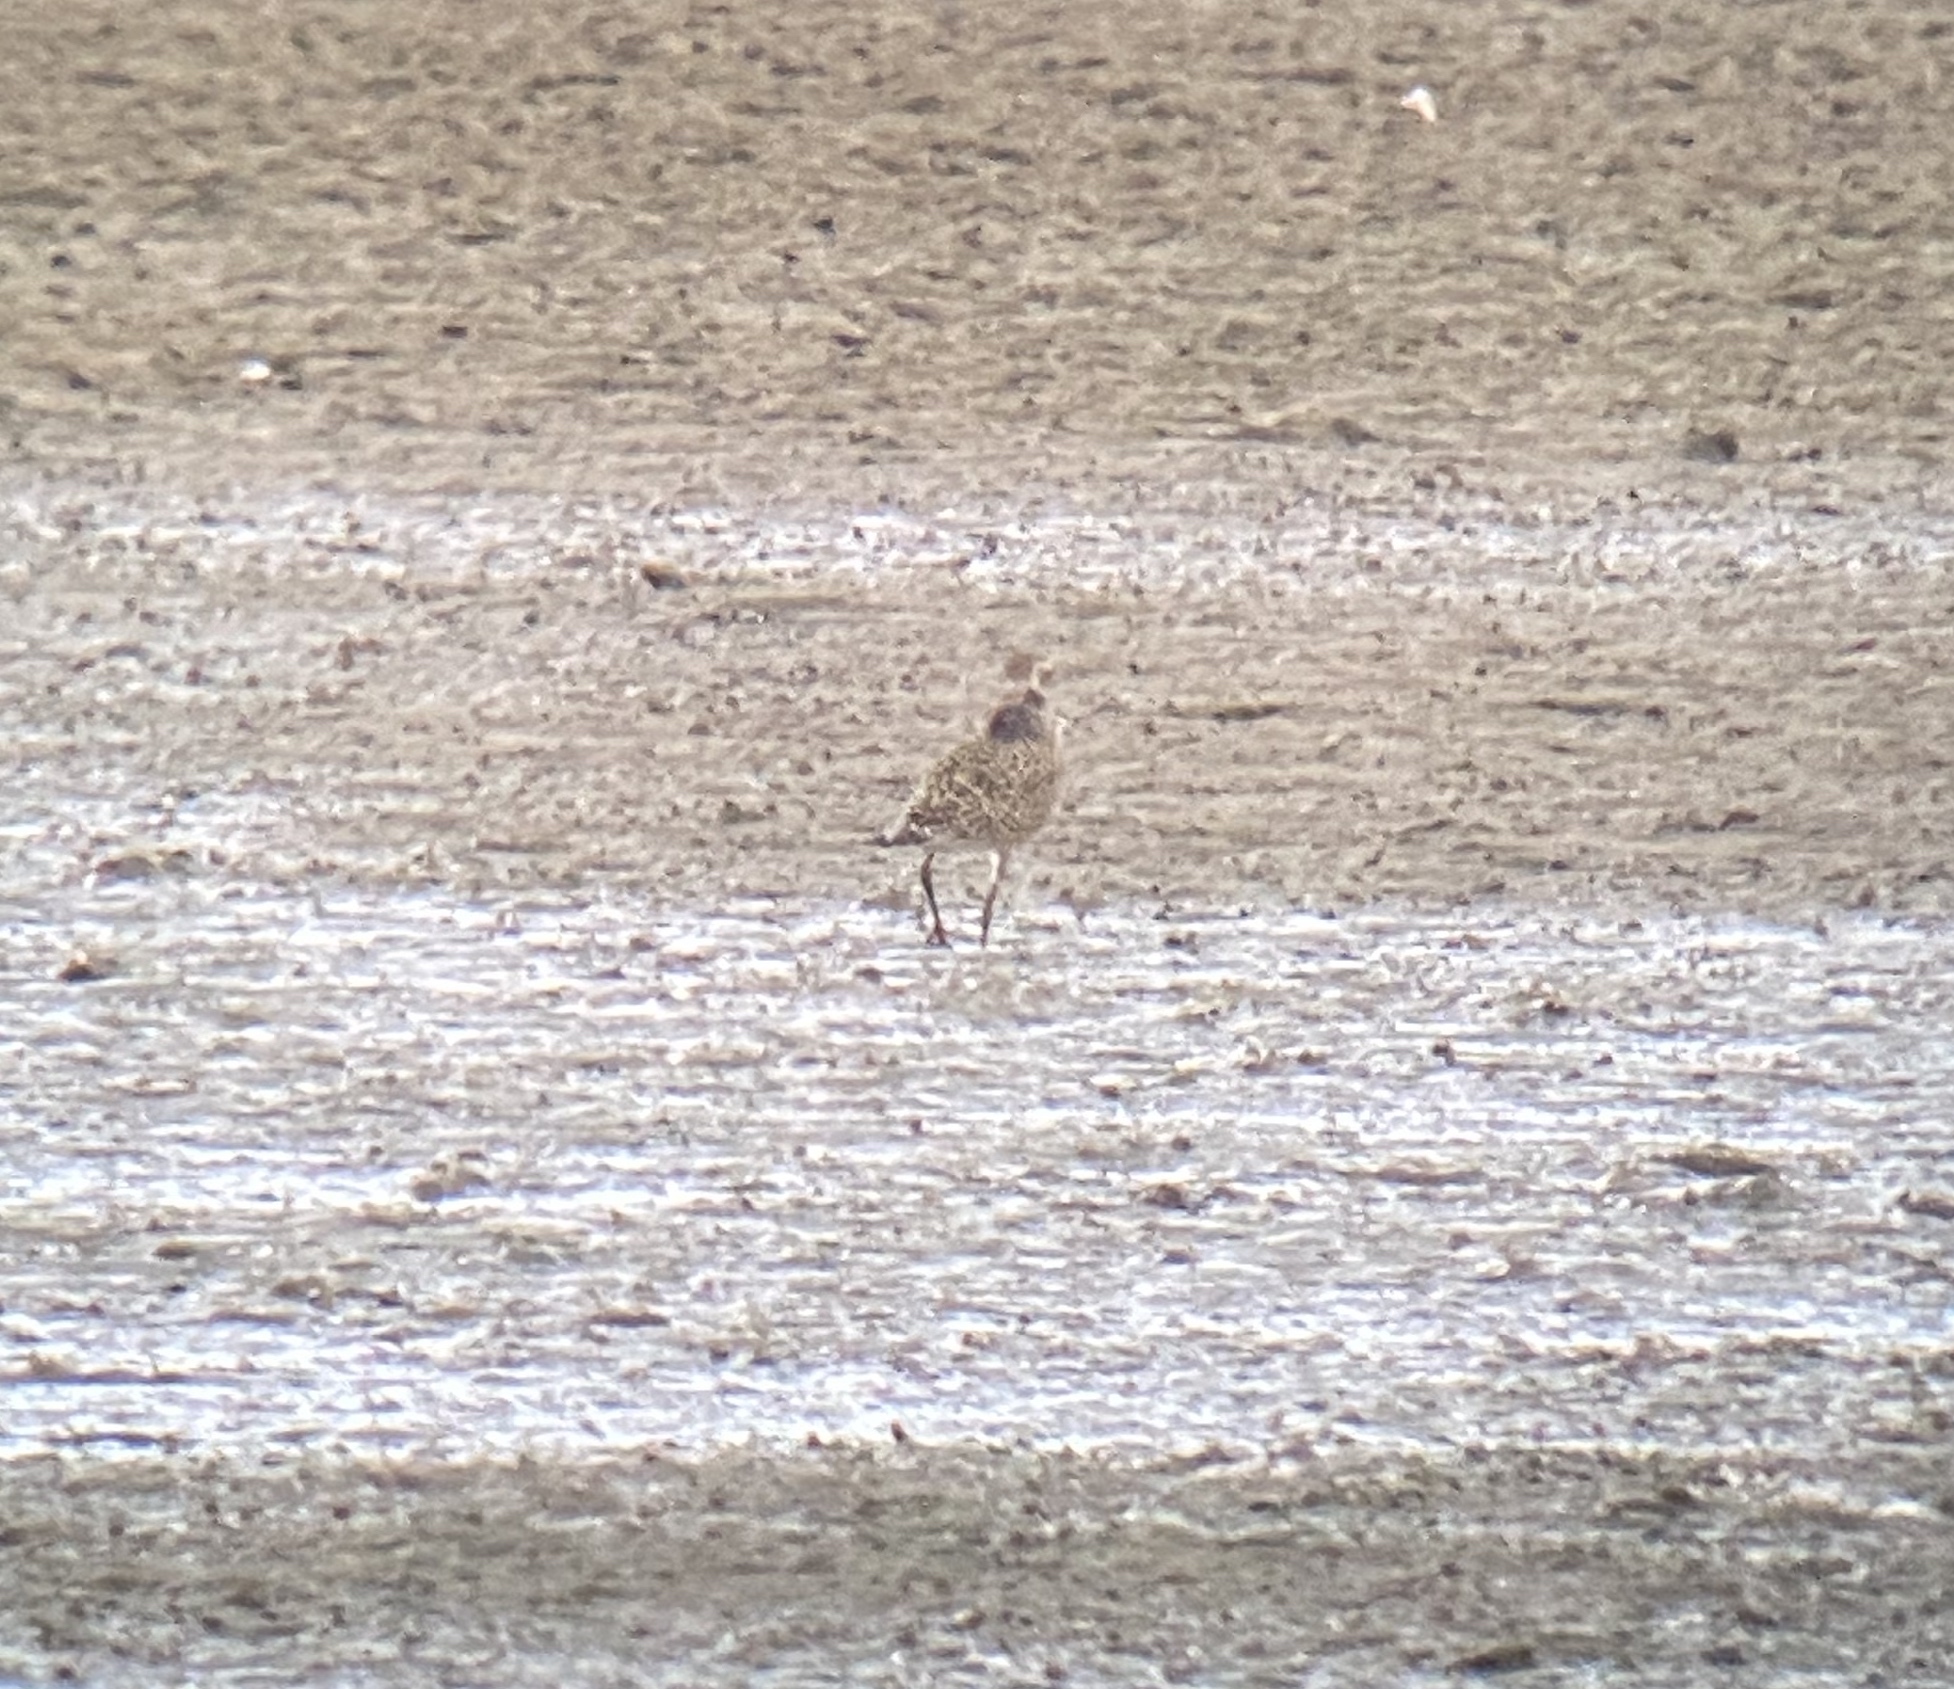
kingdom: Animalia
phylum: Chordata
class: Aves
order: Charadriiformes
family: Charadriidae
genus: Pluvialis
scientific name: Pluvialis dominica
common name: American golden plover
